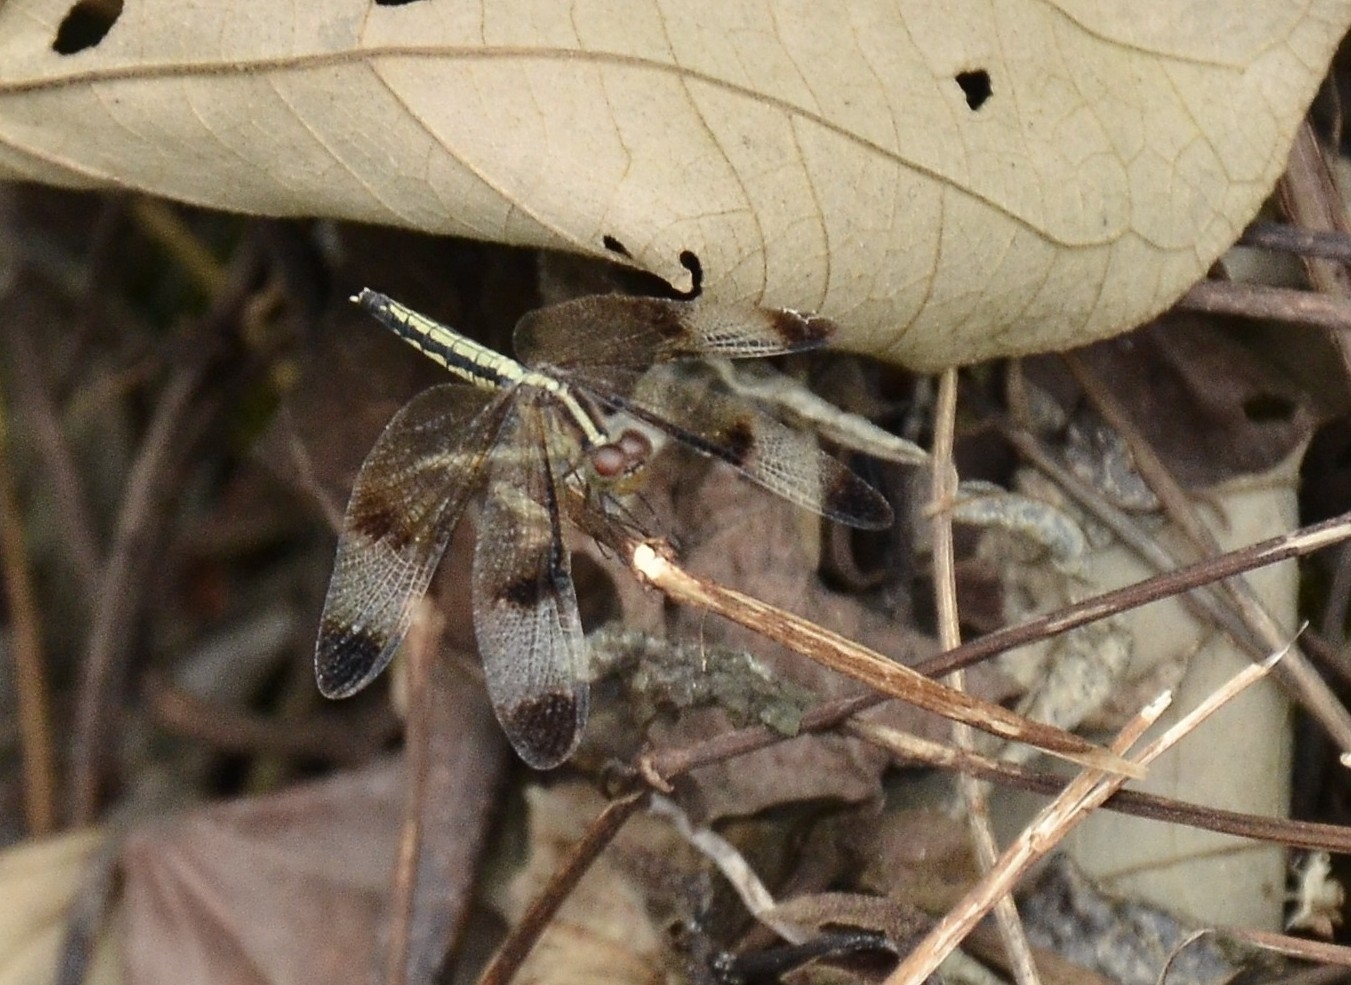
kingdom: Animalia
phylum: Arthropoda
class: Insecta
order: Odonata
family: Libellulidae
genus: Neurothemis
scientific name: Neurothemis tullia
